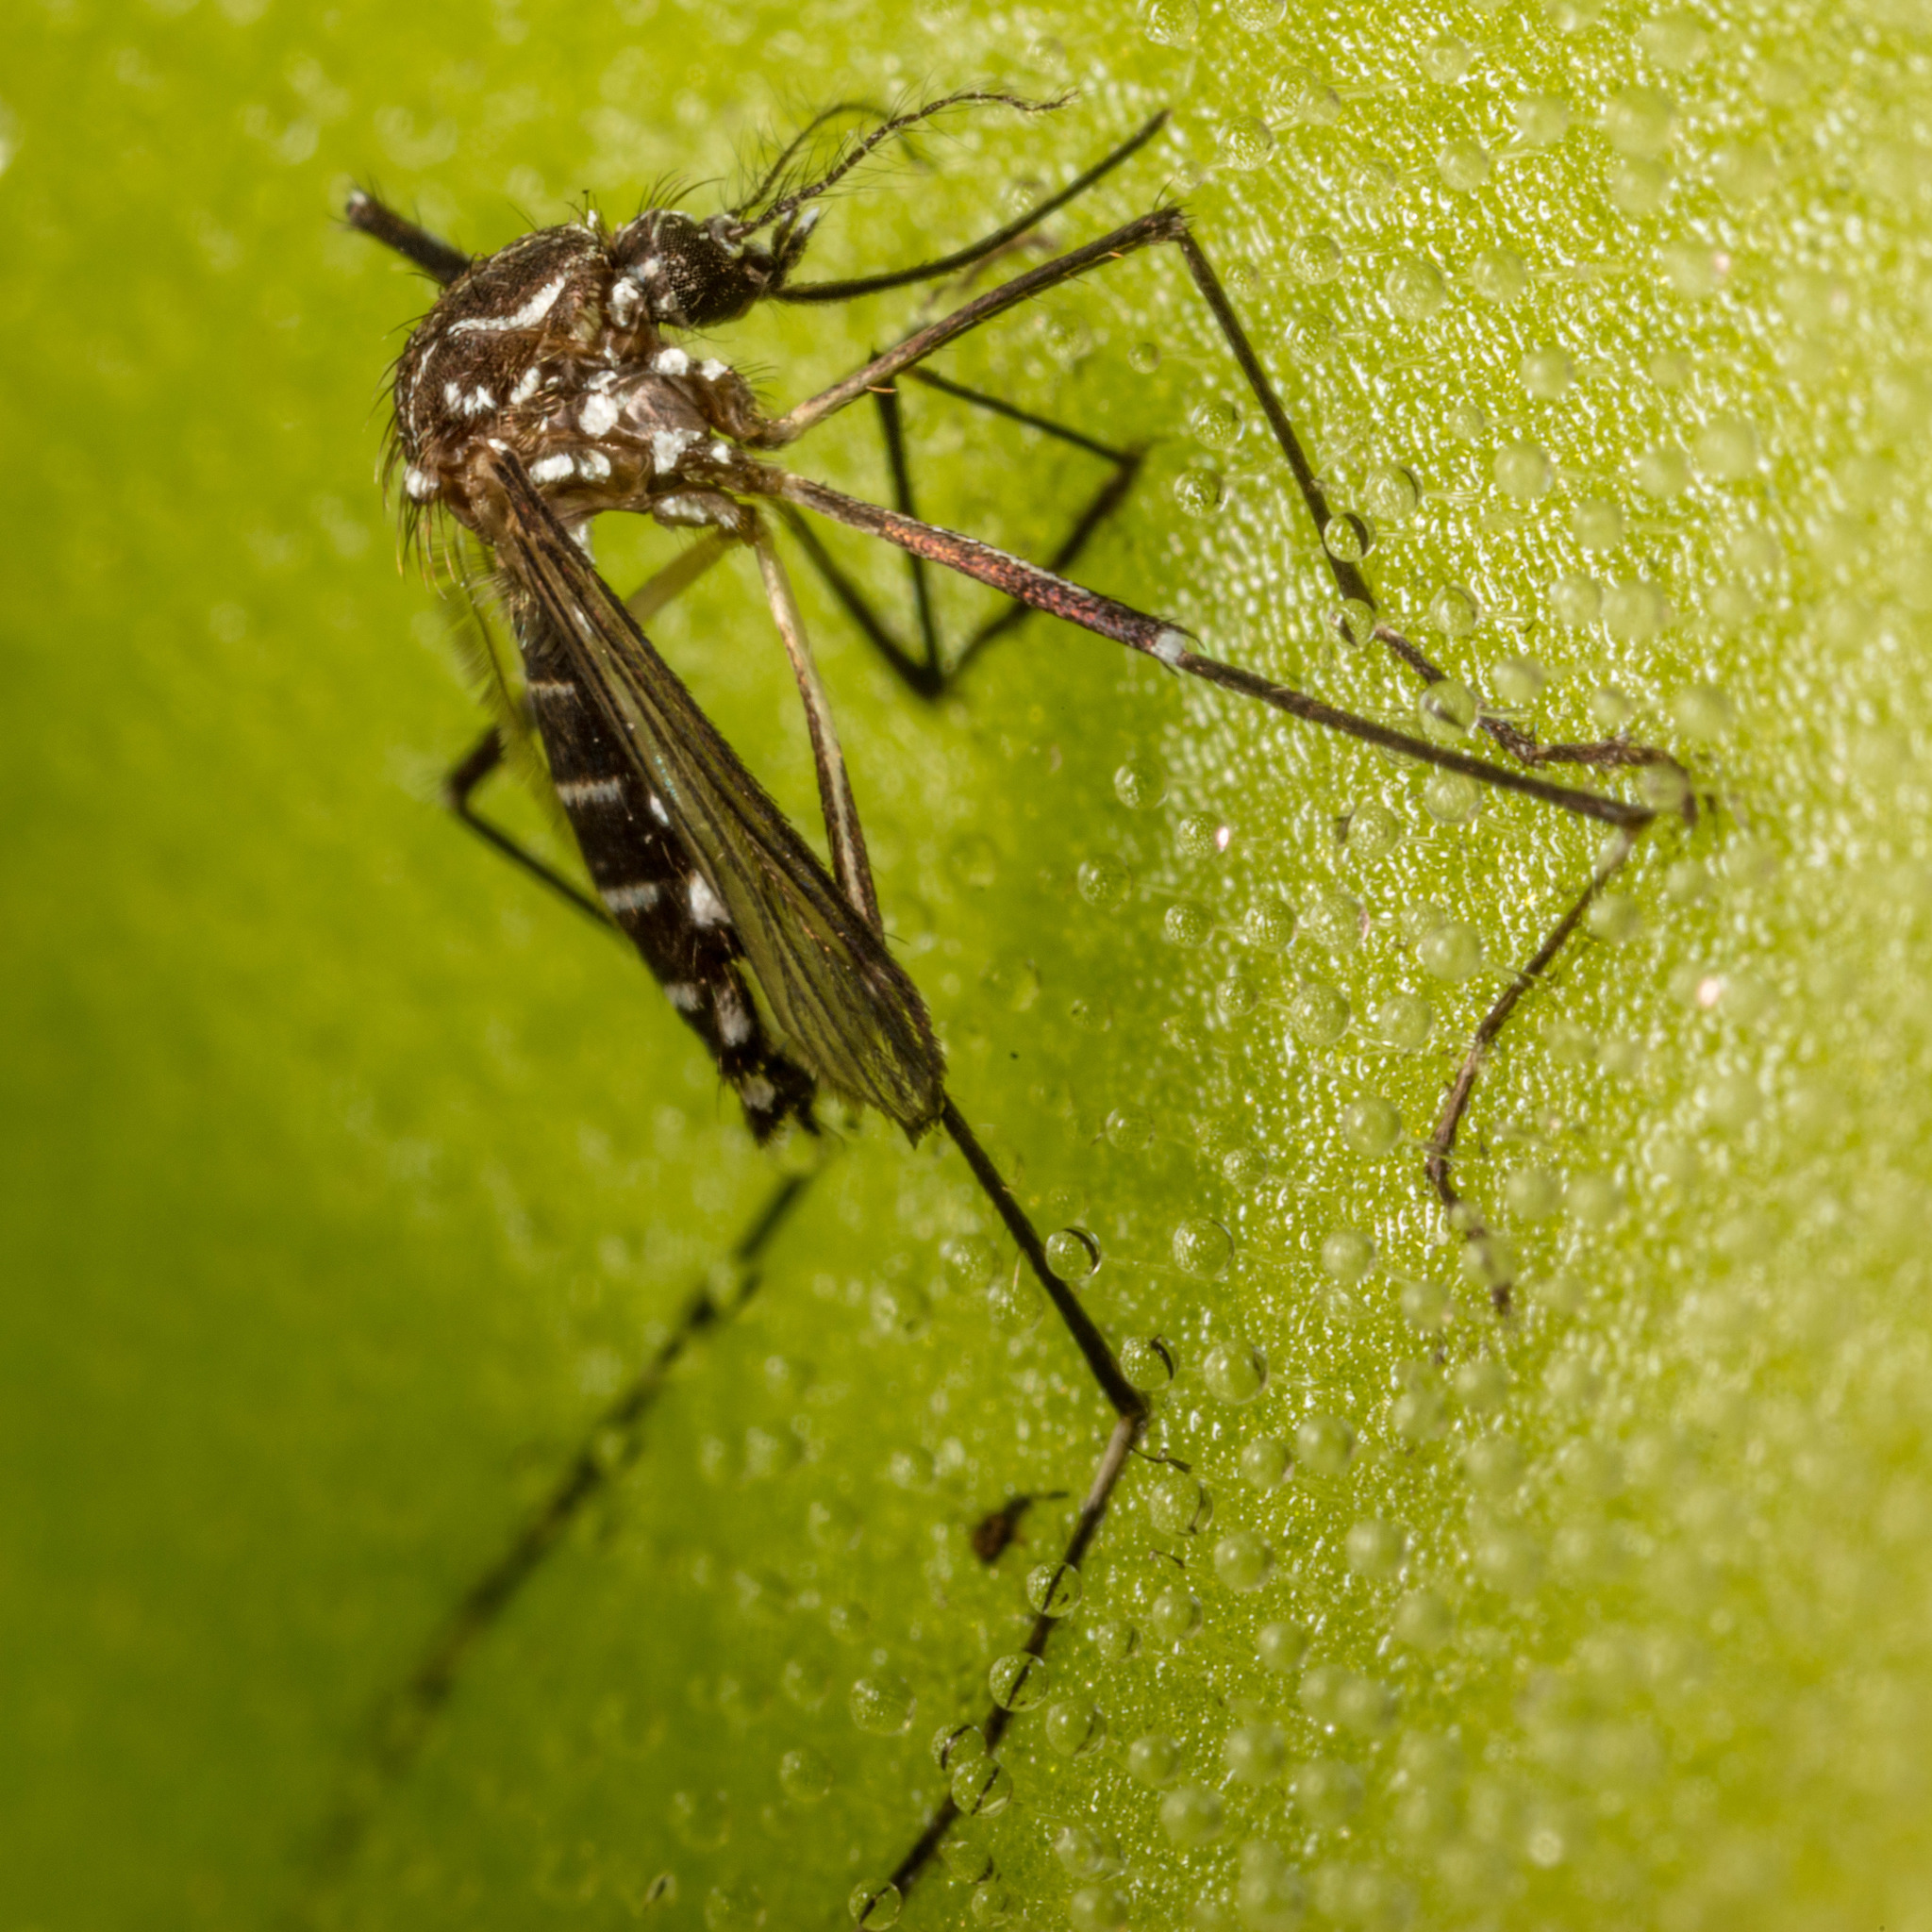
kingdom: Animalia
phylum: Arthropoda
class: Insecta
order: Diptera
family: Culicidae
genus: Aedes
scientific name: Aedes aegypti
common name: Yellow fever mosquito
